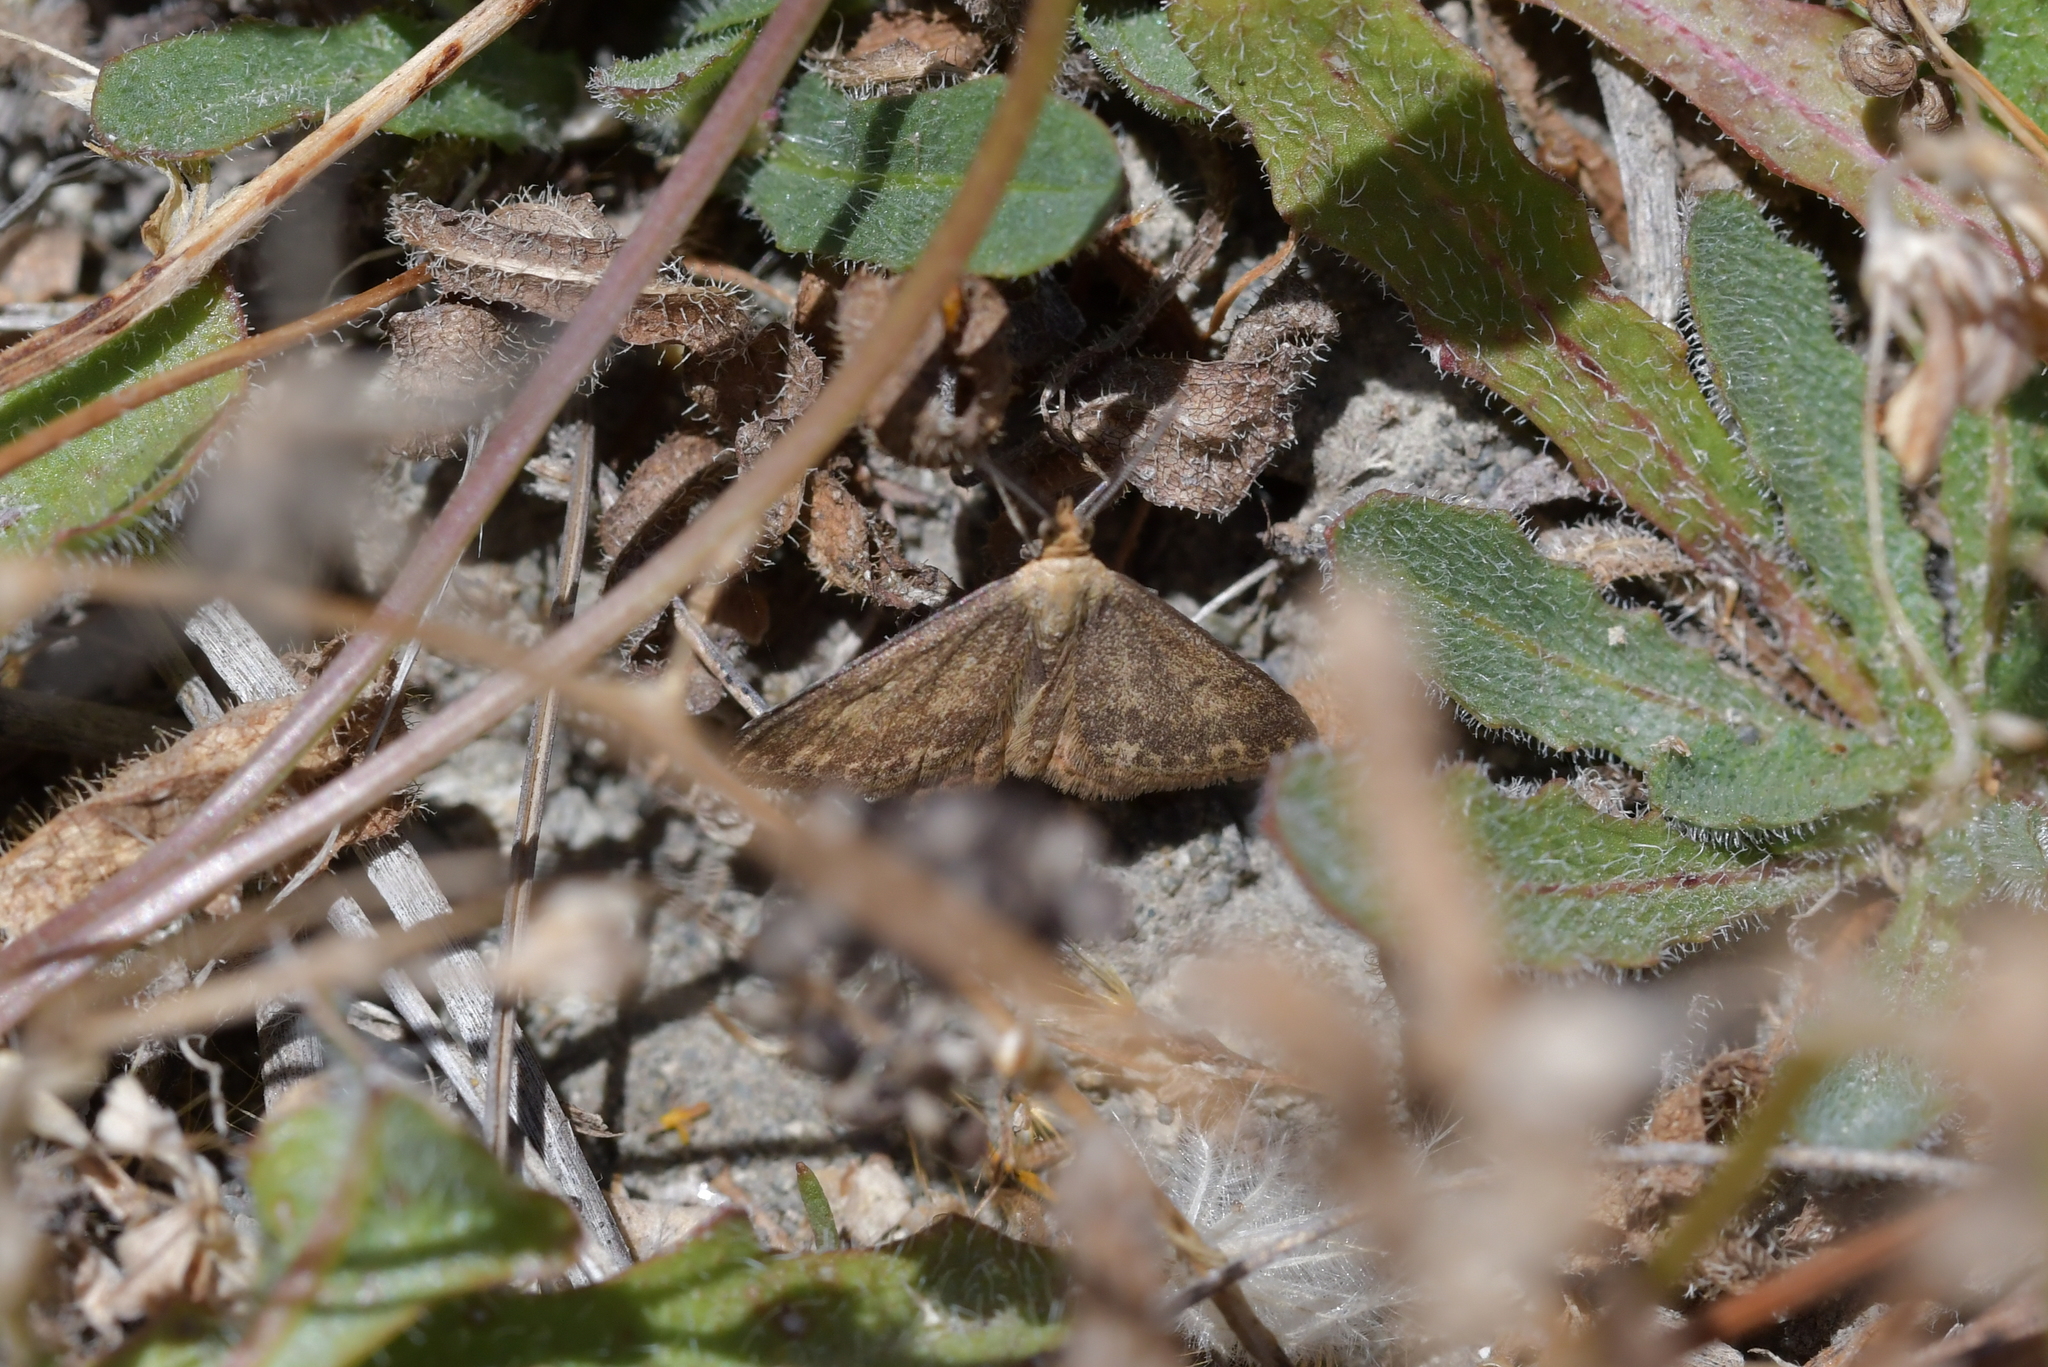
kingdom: Animalia
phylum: Arthropoda
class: Insecta
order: Lepidoptera
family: Geometridae
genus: Scopula
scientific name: Scopula rubraria
